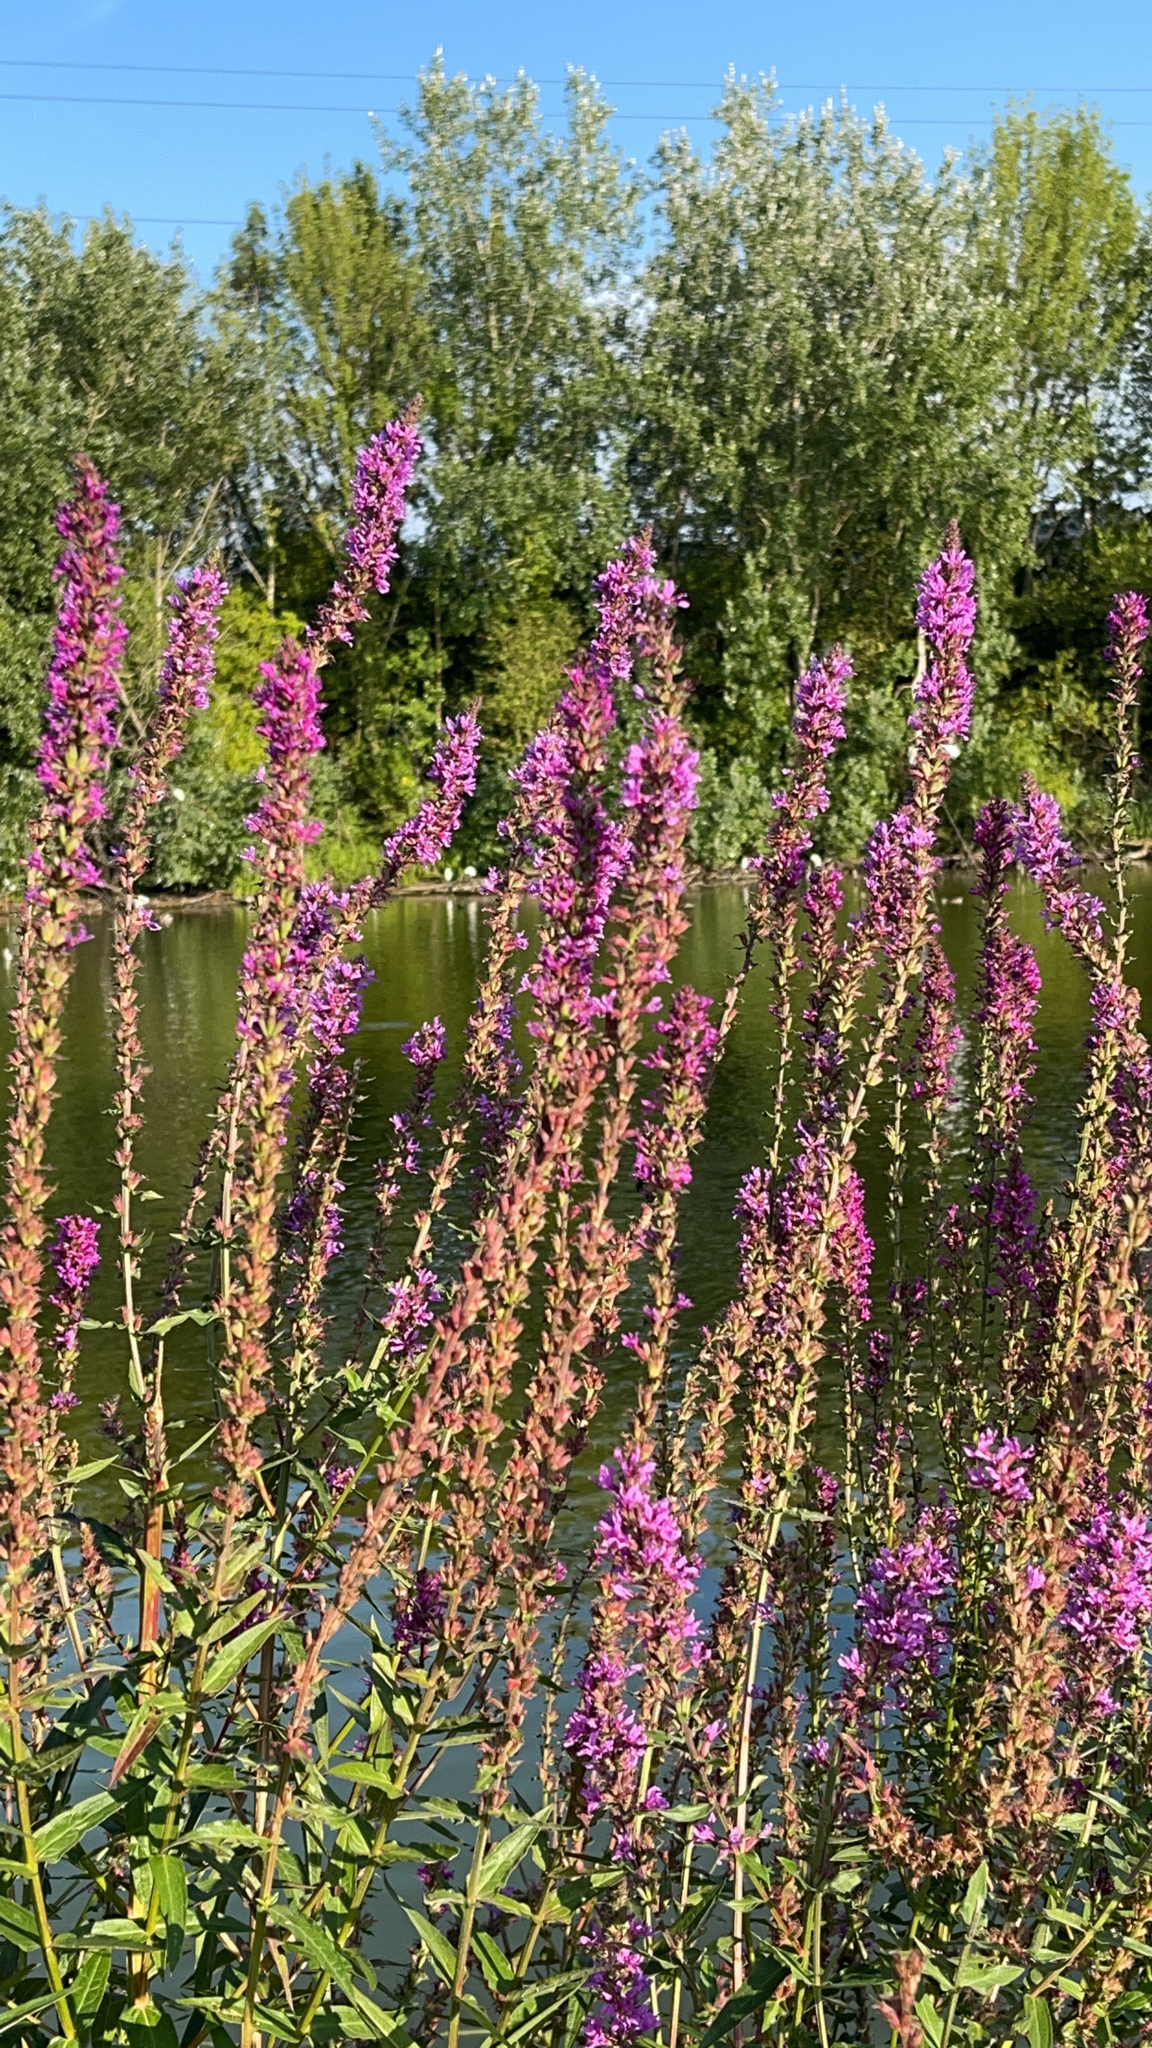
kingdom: Plantae
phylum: Tracheophyta
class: Magnoliopsida
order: Myrtales
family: Lythraceae
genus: Lythrum
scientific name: Lythrum salicaria
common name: Purple loosestrife
